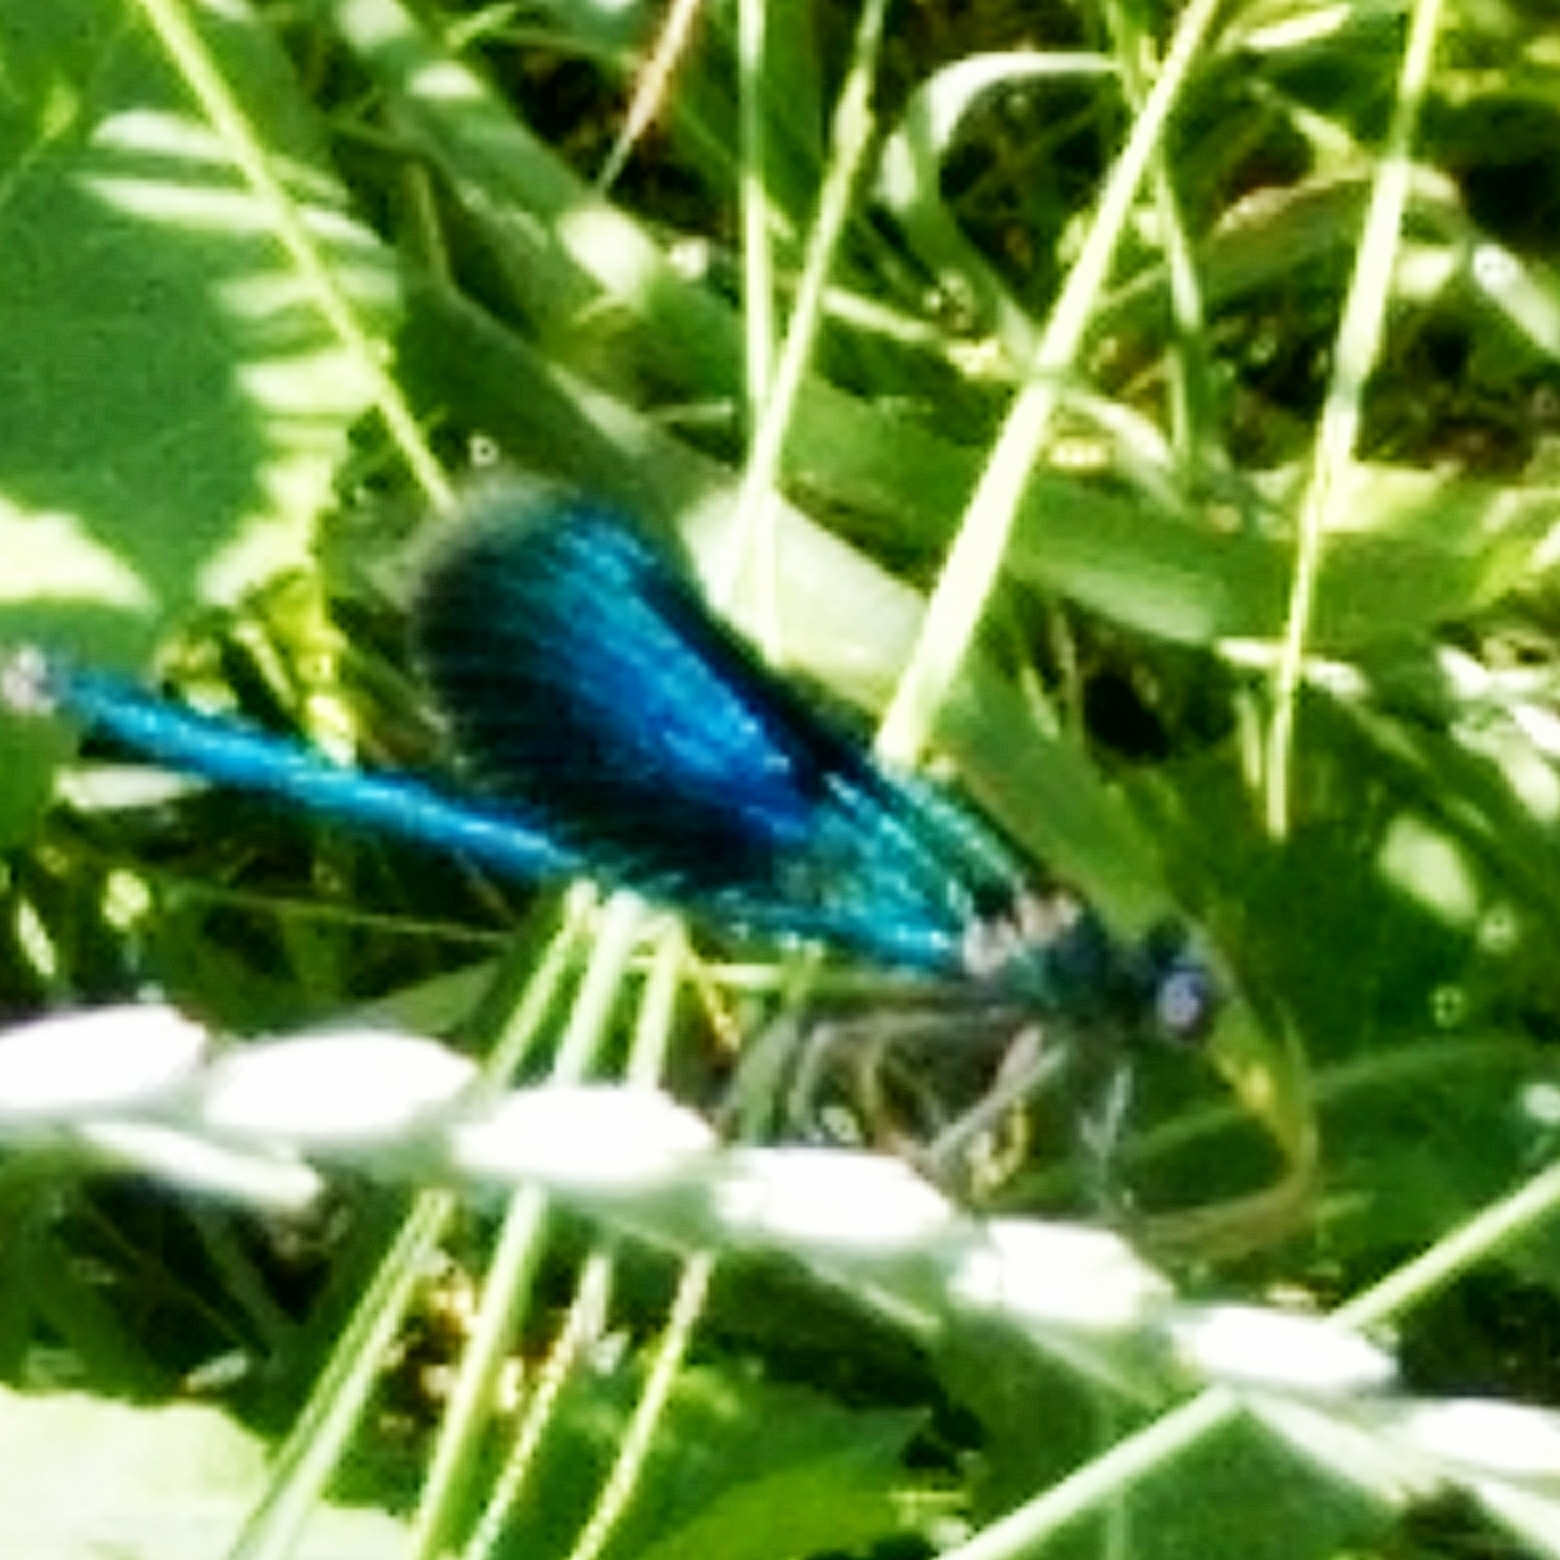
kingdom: Animalia
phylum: Arthropoda
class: Insecta
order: Odonata
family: Calopterygidae
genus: Calopteryx
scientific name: Calopteryx splendens
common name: Banded demoiselle
